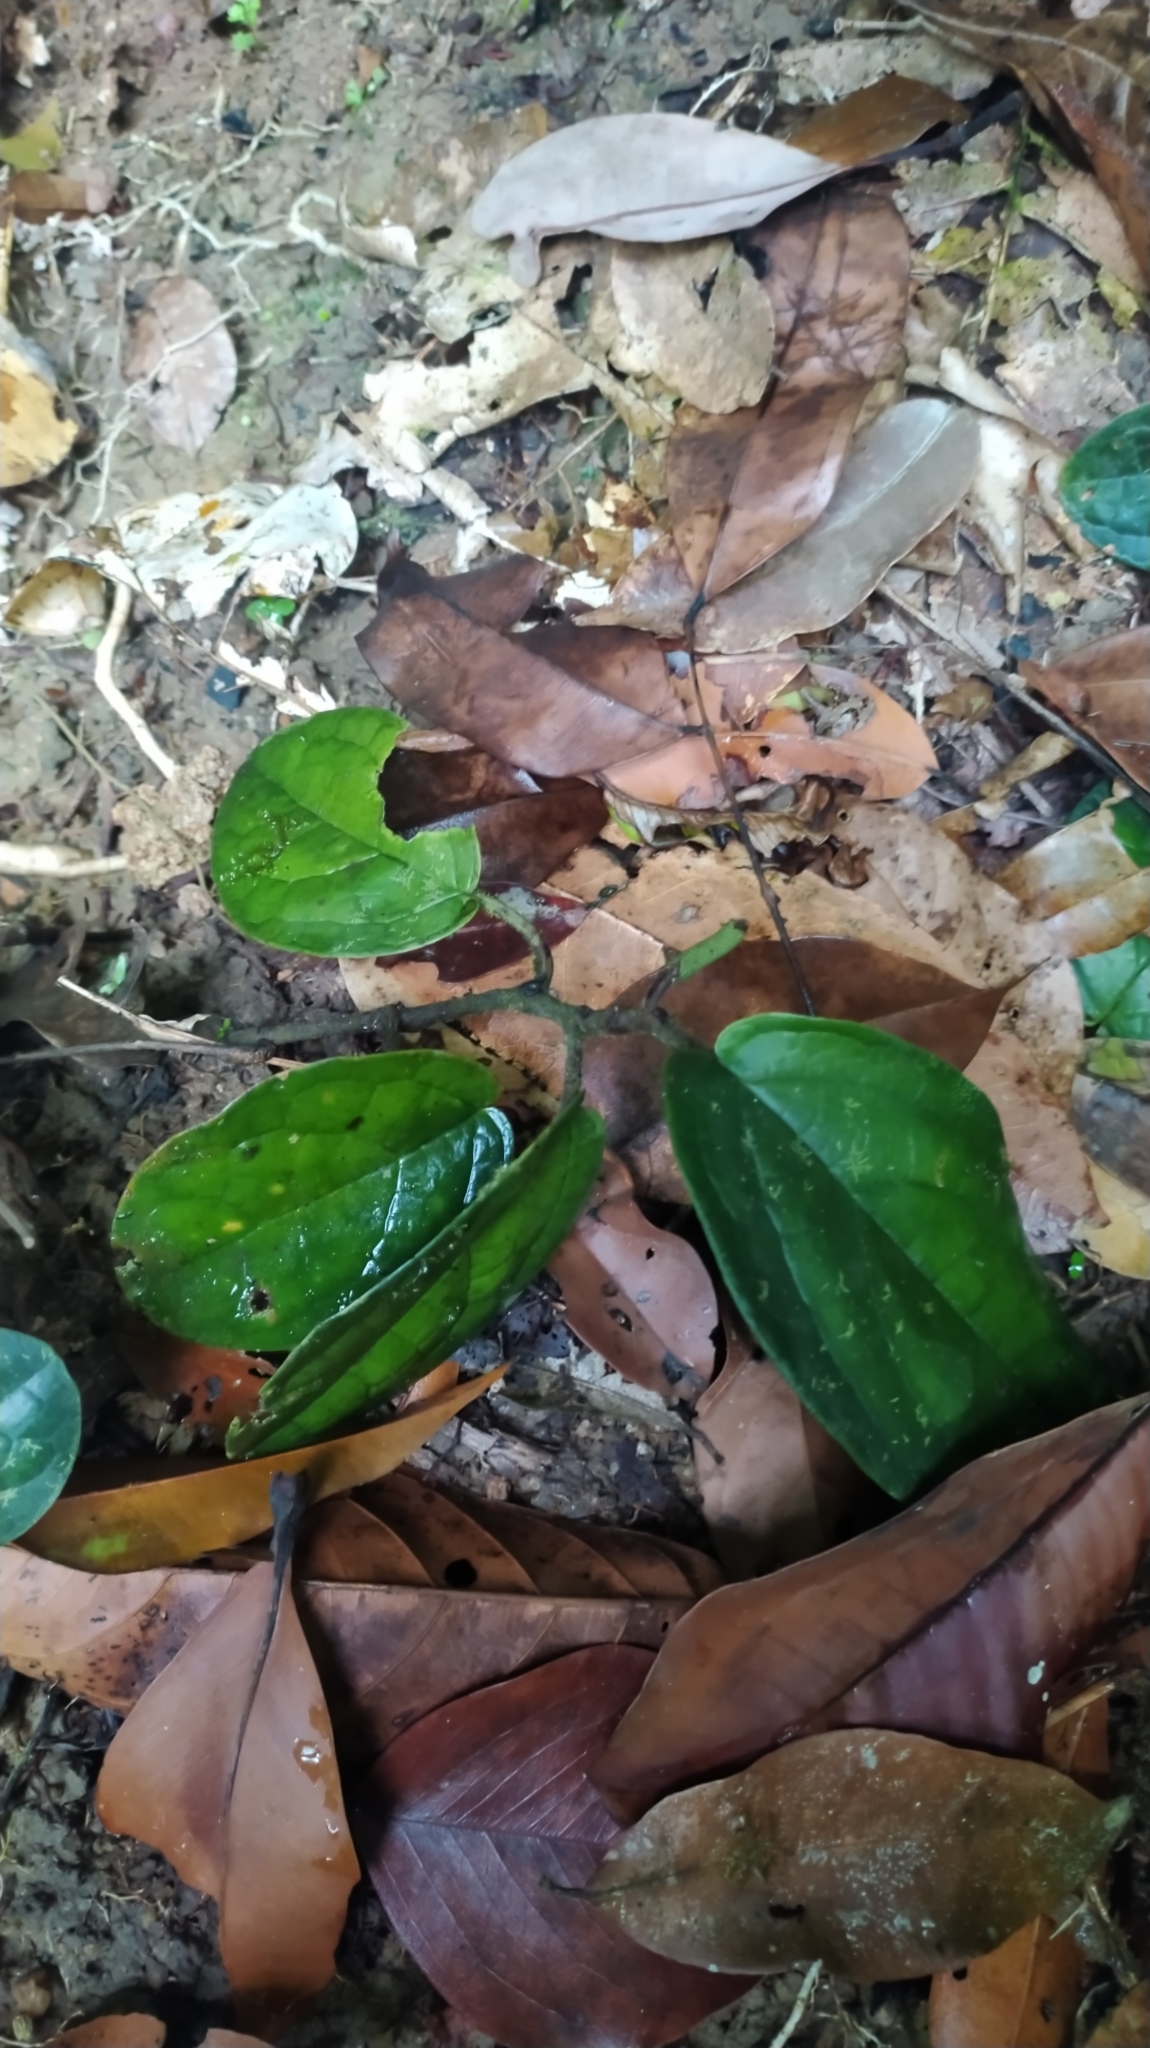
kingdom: Plantae
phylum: Tracheophyta
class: Magnoliopsida
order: Piperales
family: Piperaceae
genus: Piper
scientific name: Piper humistratum
